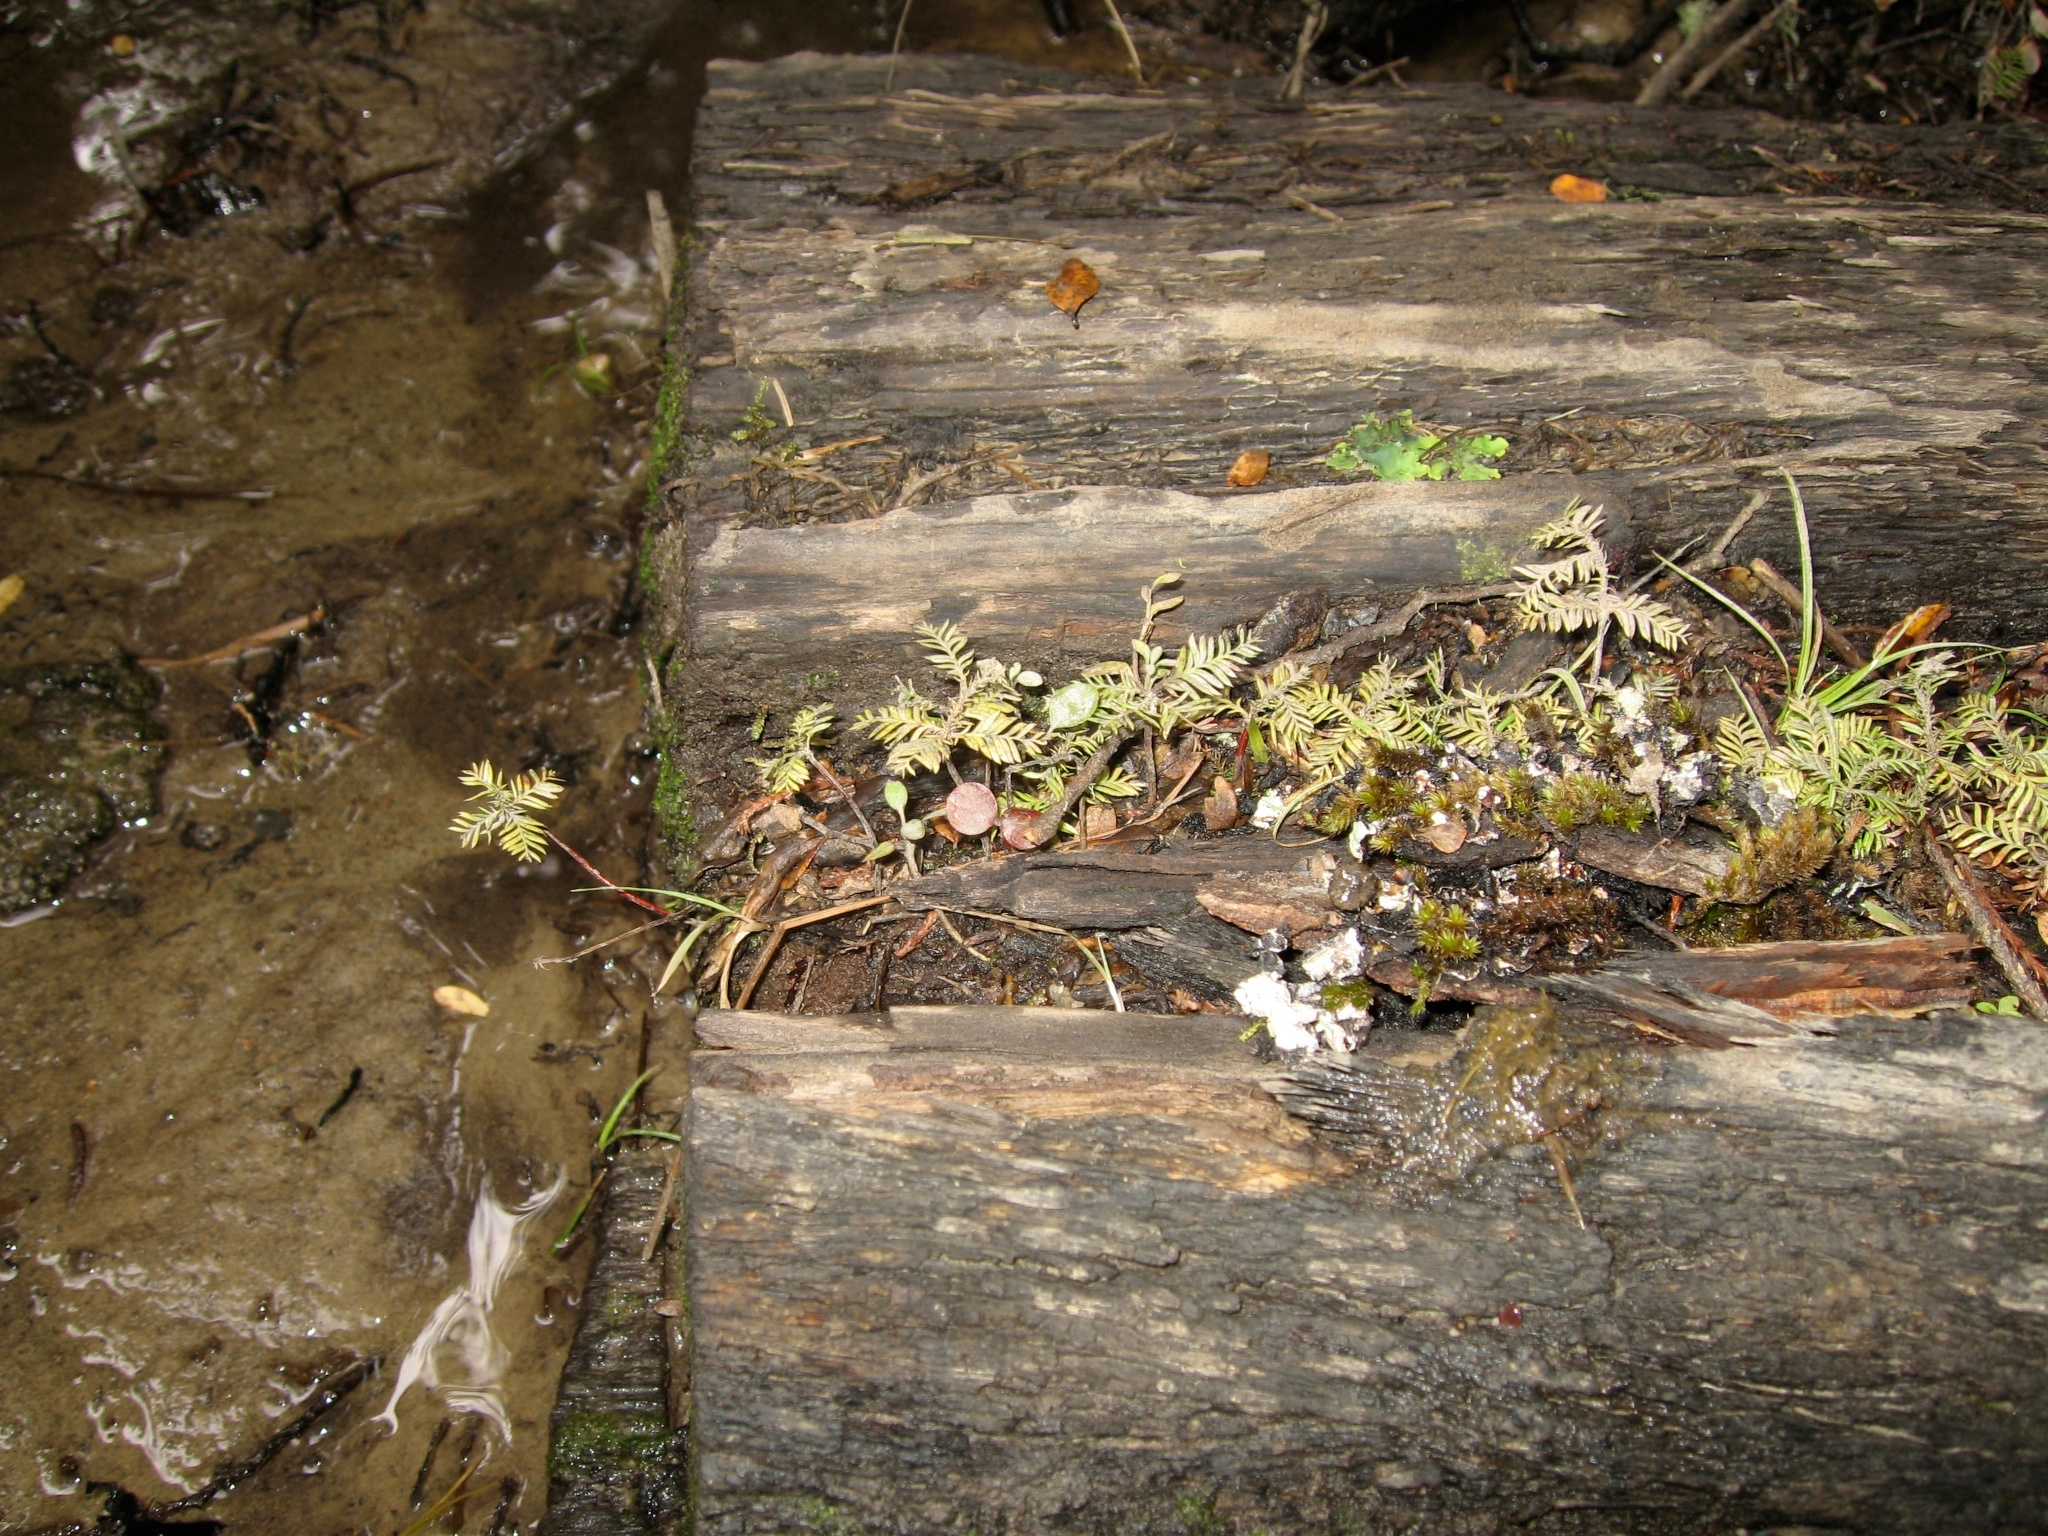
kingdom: Plantae
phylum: Tracheophyta
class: Pinopsida
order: Pinales
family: Podocarpaceae
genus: Dacrycarpus
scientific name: Dacrycarpus dacrydioides
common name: White pine
